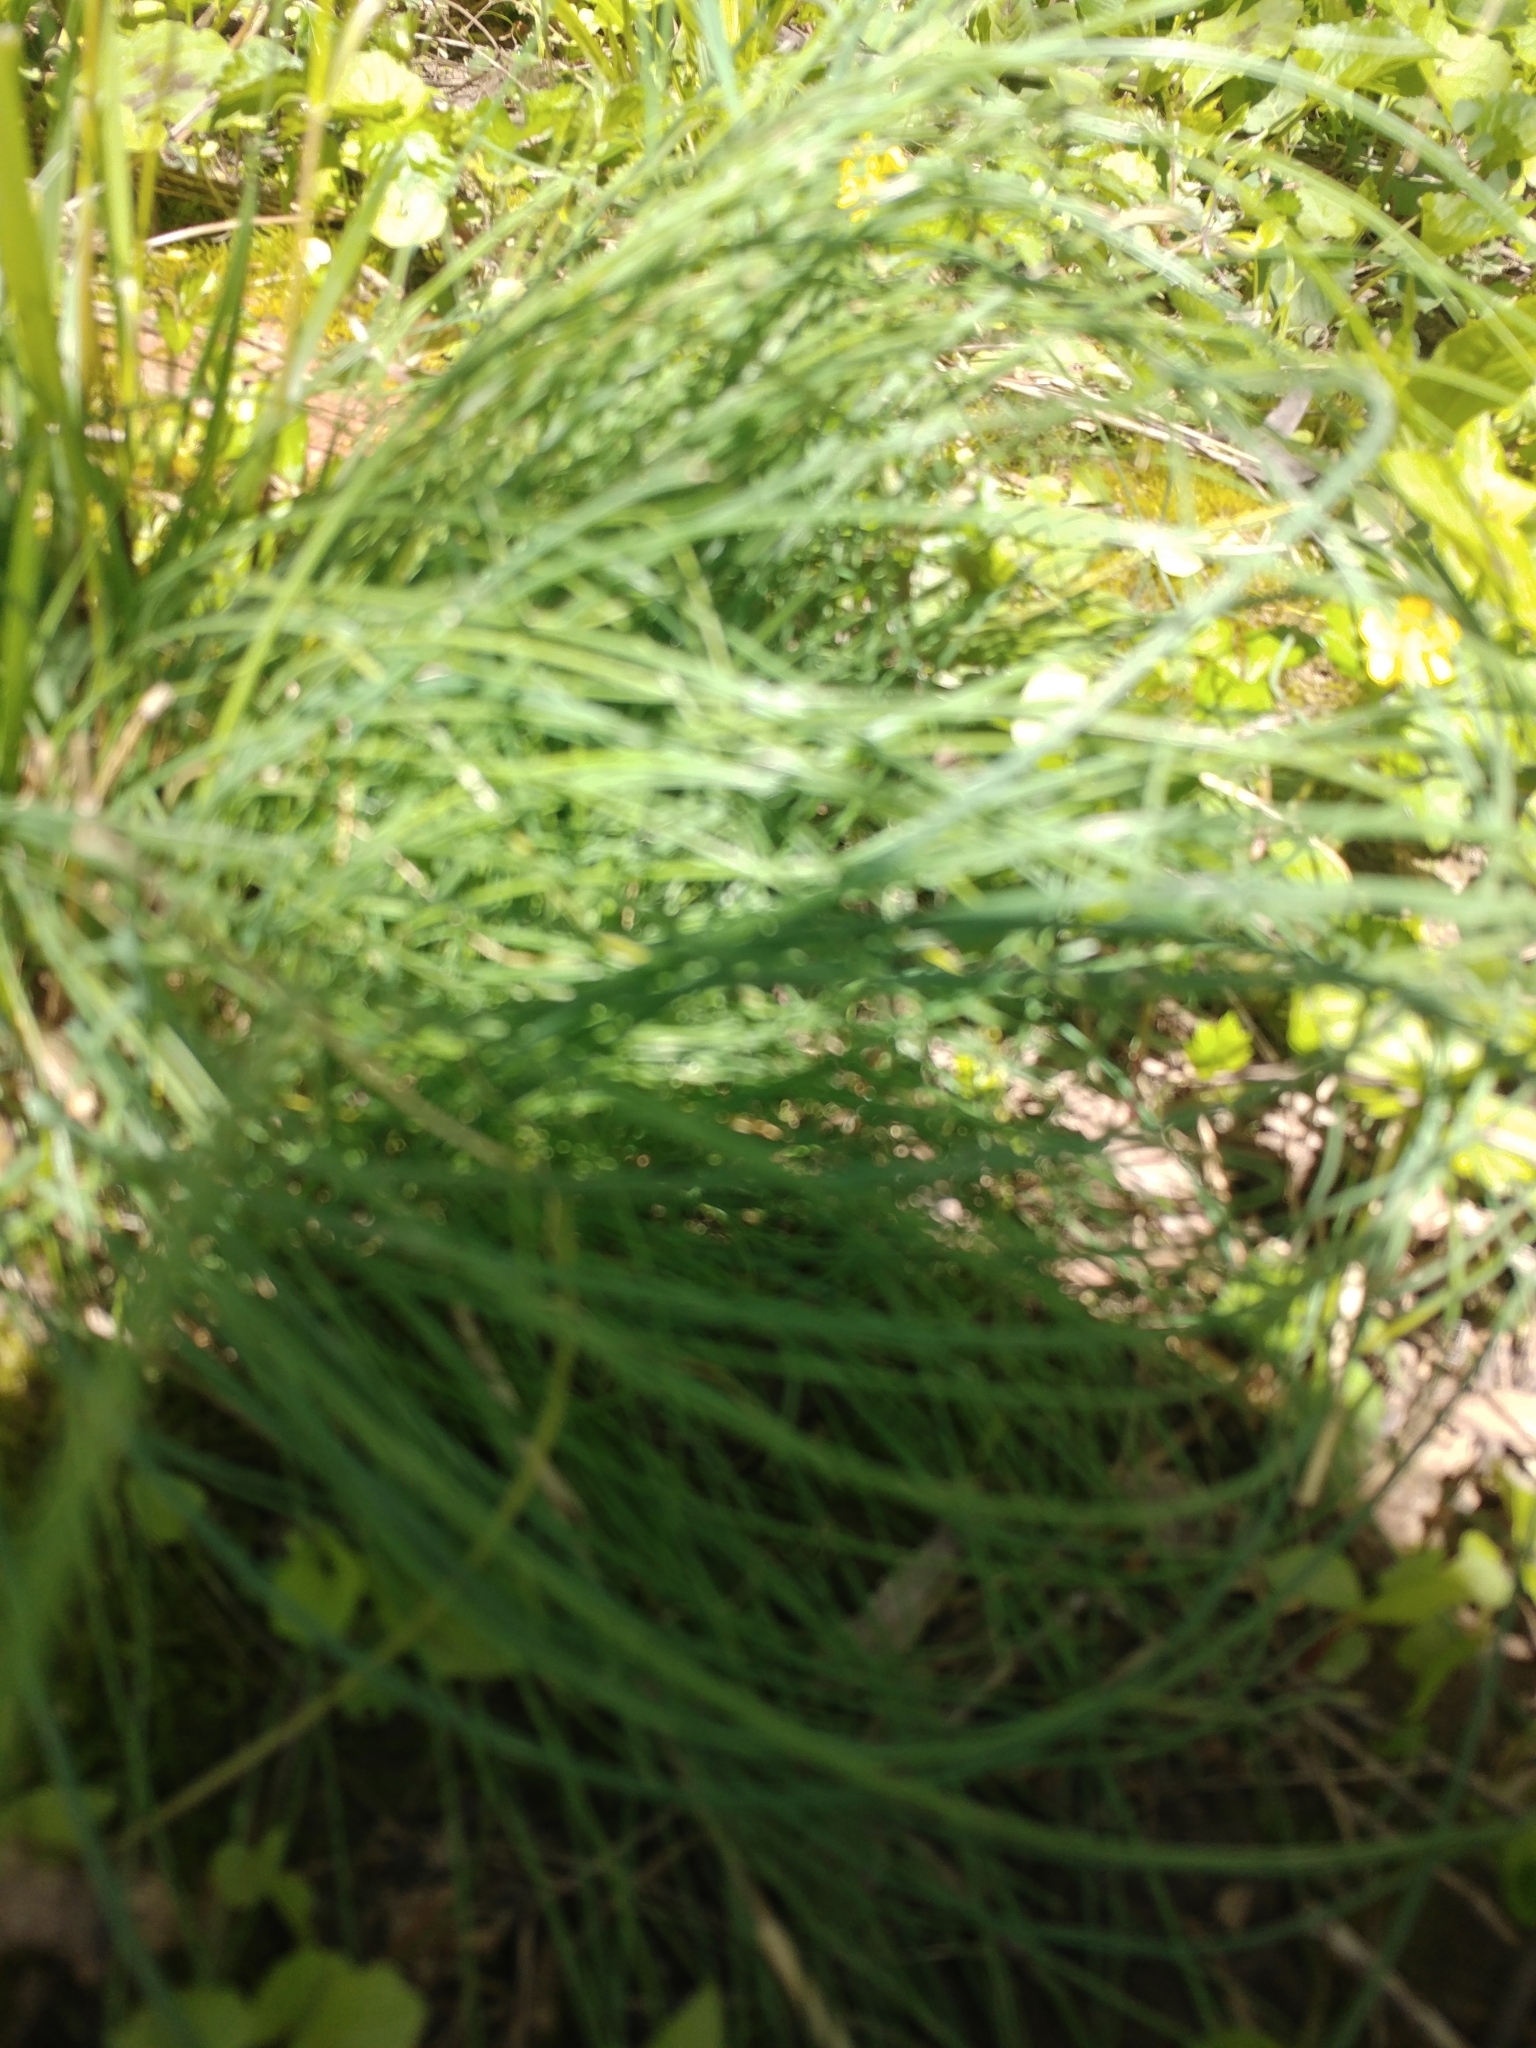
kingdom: Plantae
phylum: Tracheophyta
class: Liliopsida
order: Asparagales
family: Amaryllidaceae
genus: Allium
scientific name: Allium vineale
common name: Crow garlic
